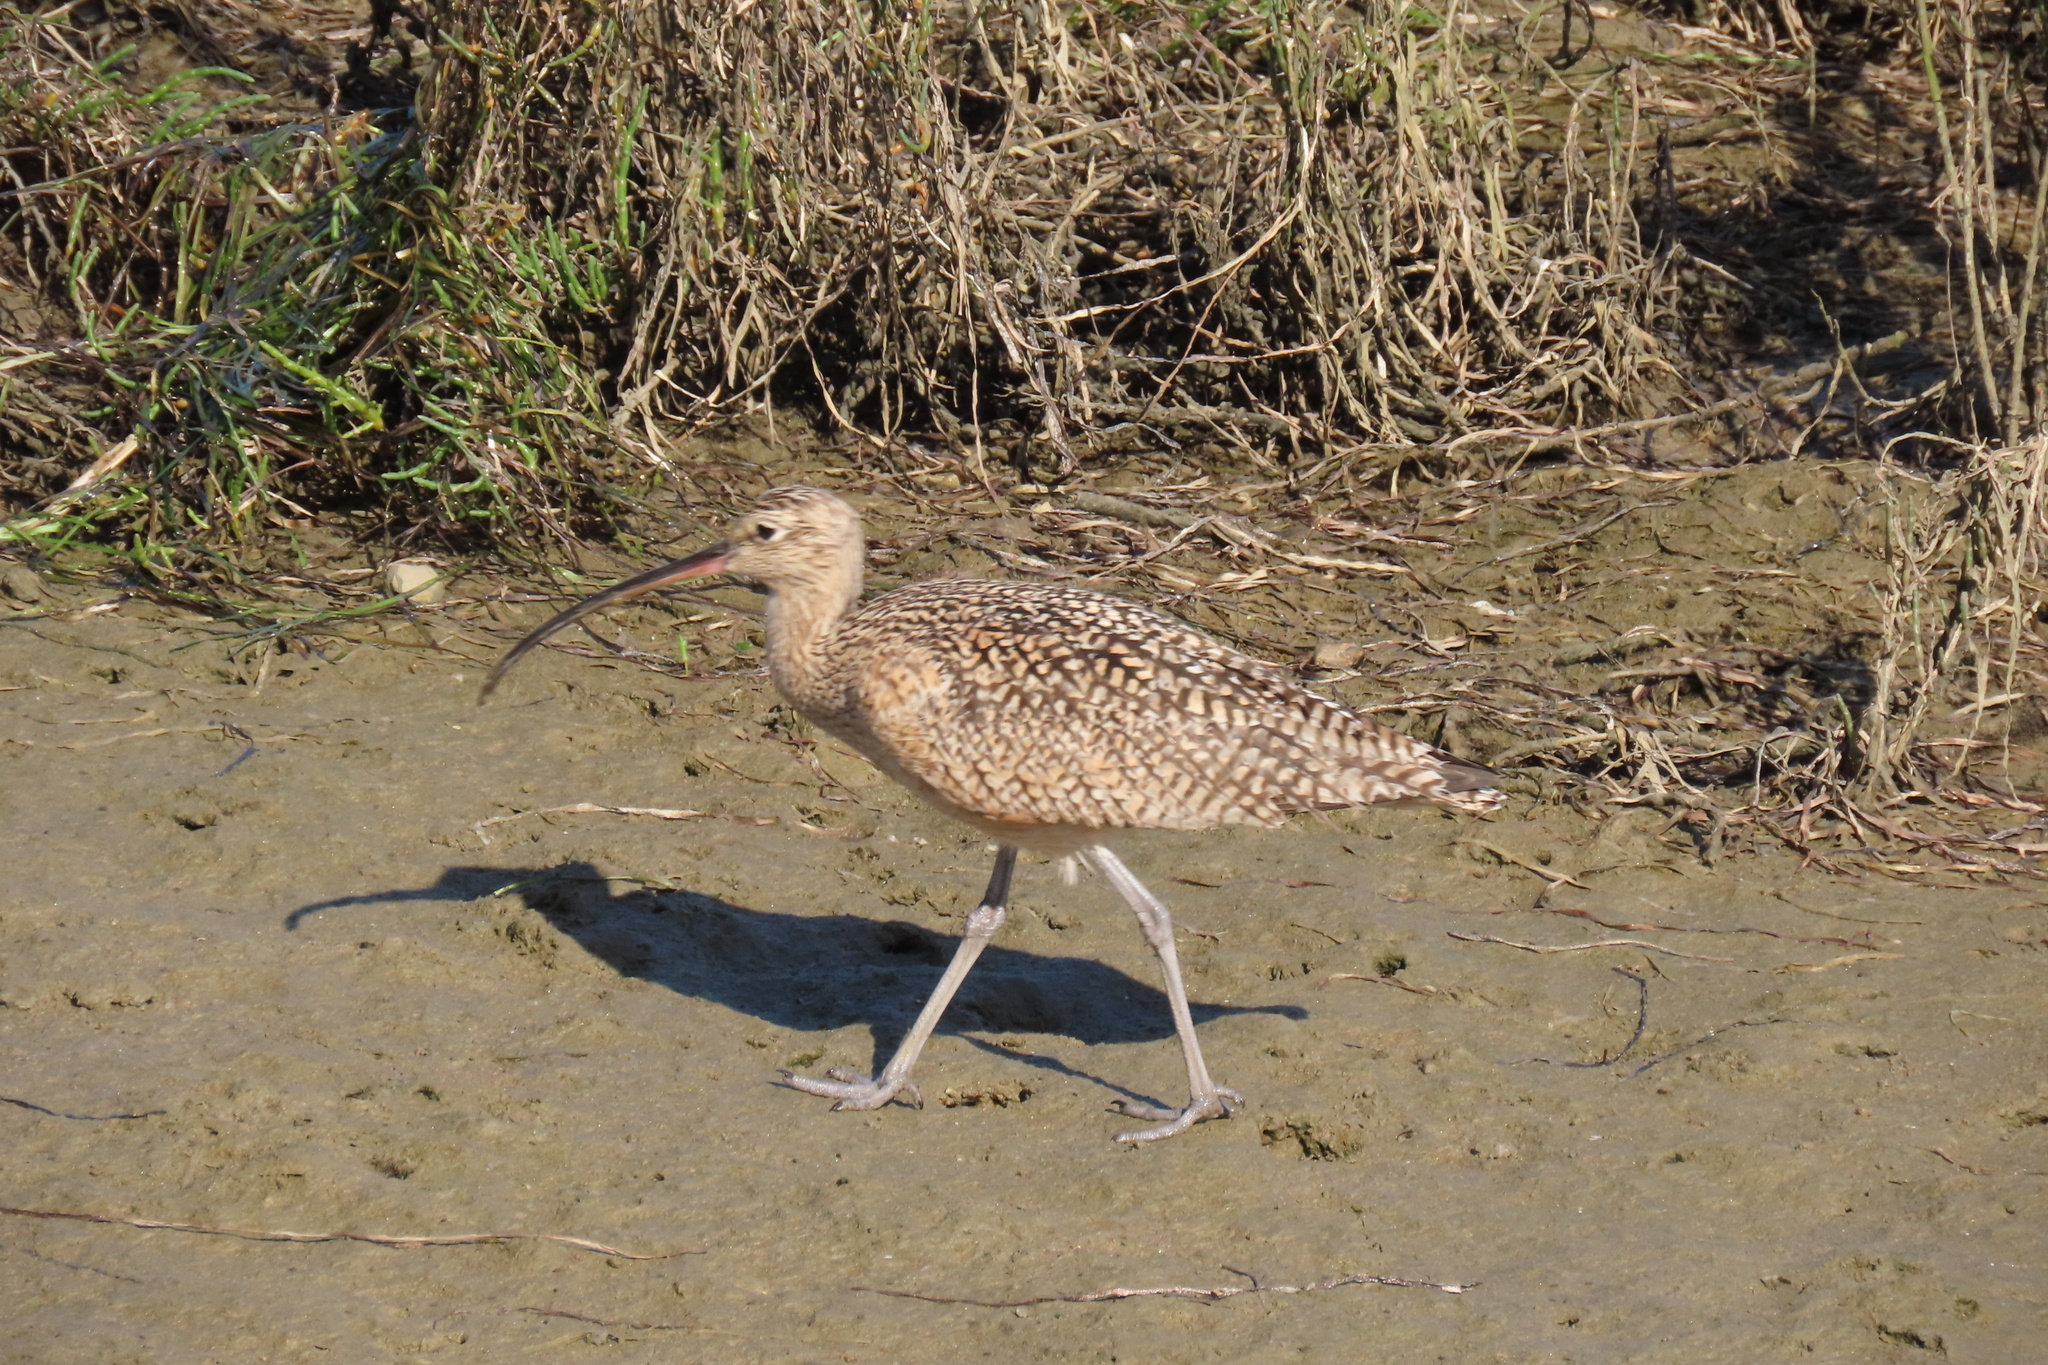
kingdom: Animalia
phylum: Chordata
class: Aves
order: Charadriiformes
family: Scolopacidae
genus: Numenius
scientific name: Numenius americanus
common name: Long-billed curlew
